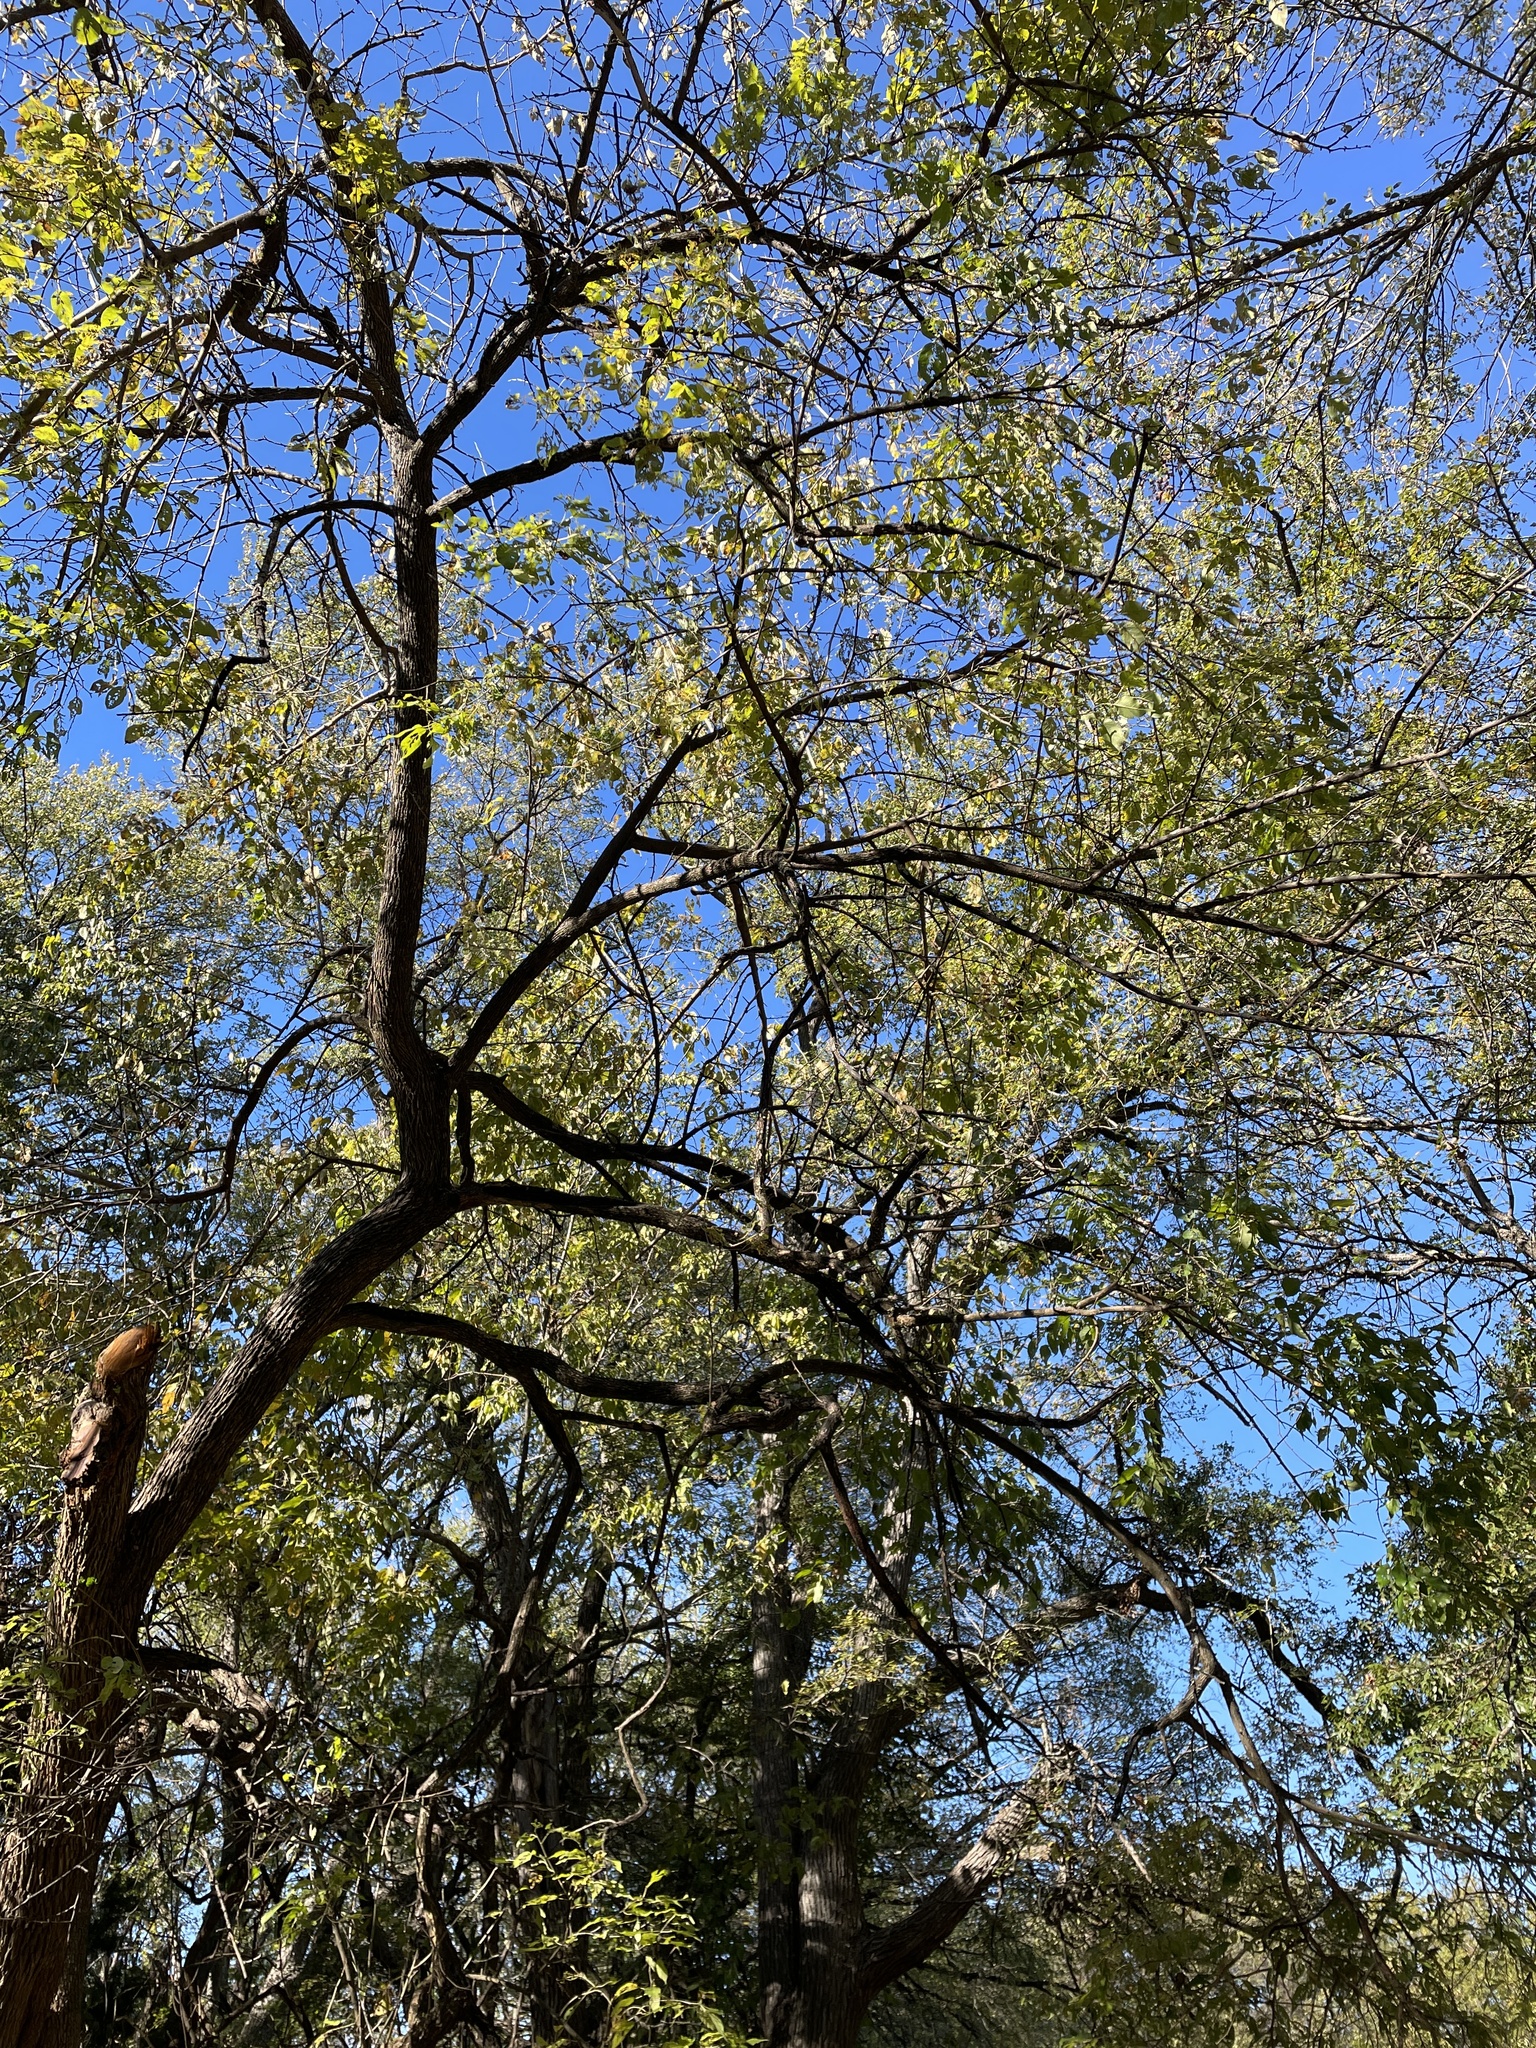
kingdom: Plantae
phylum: Tracheophyta
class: Magnoliopsida
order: Rosales
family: Moraceae
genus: Maclura
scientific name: Maclura pomifera
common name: Osage-orange
